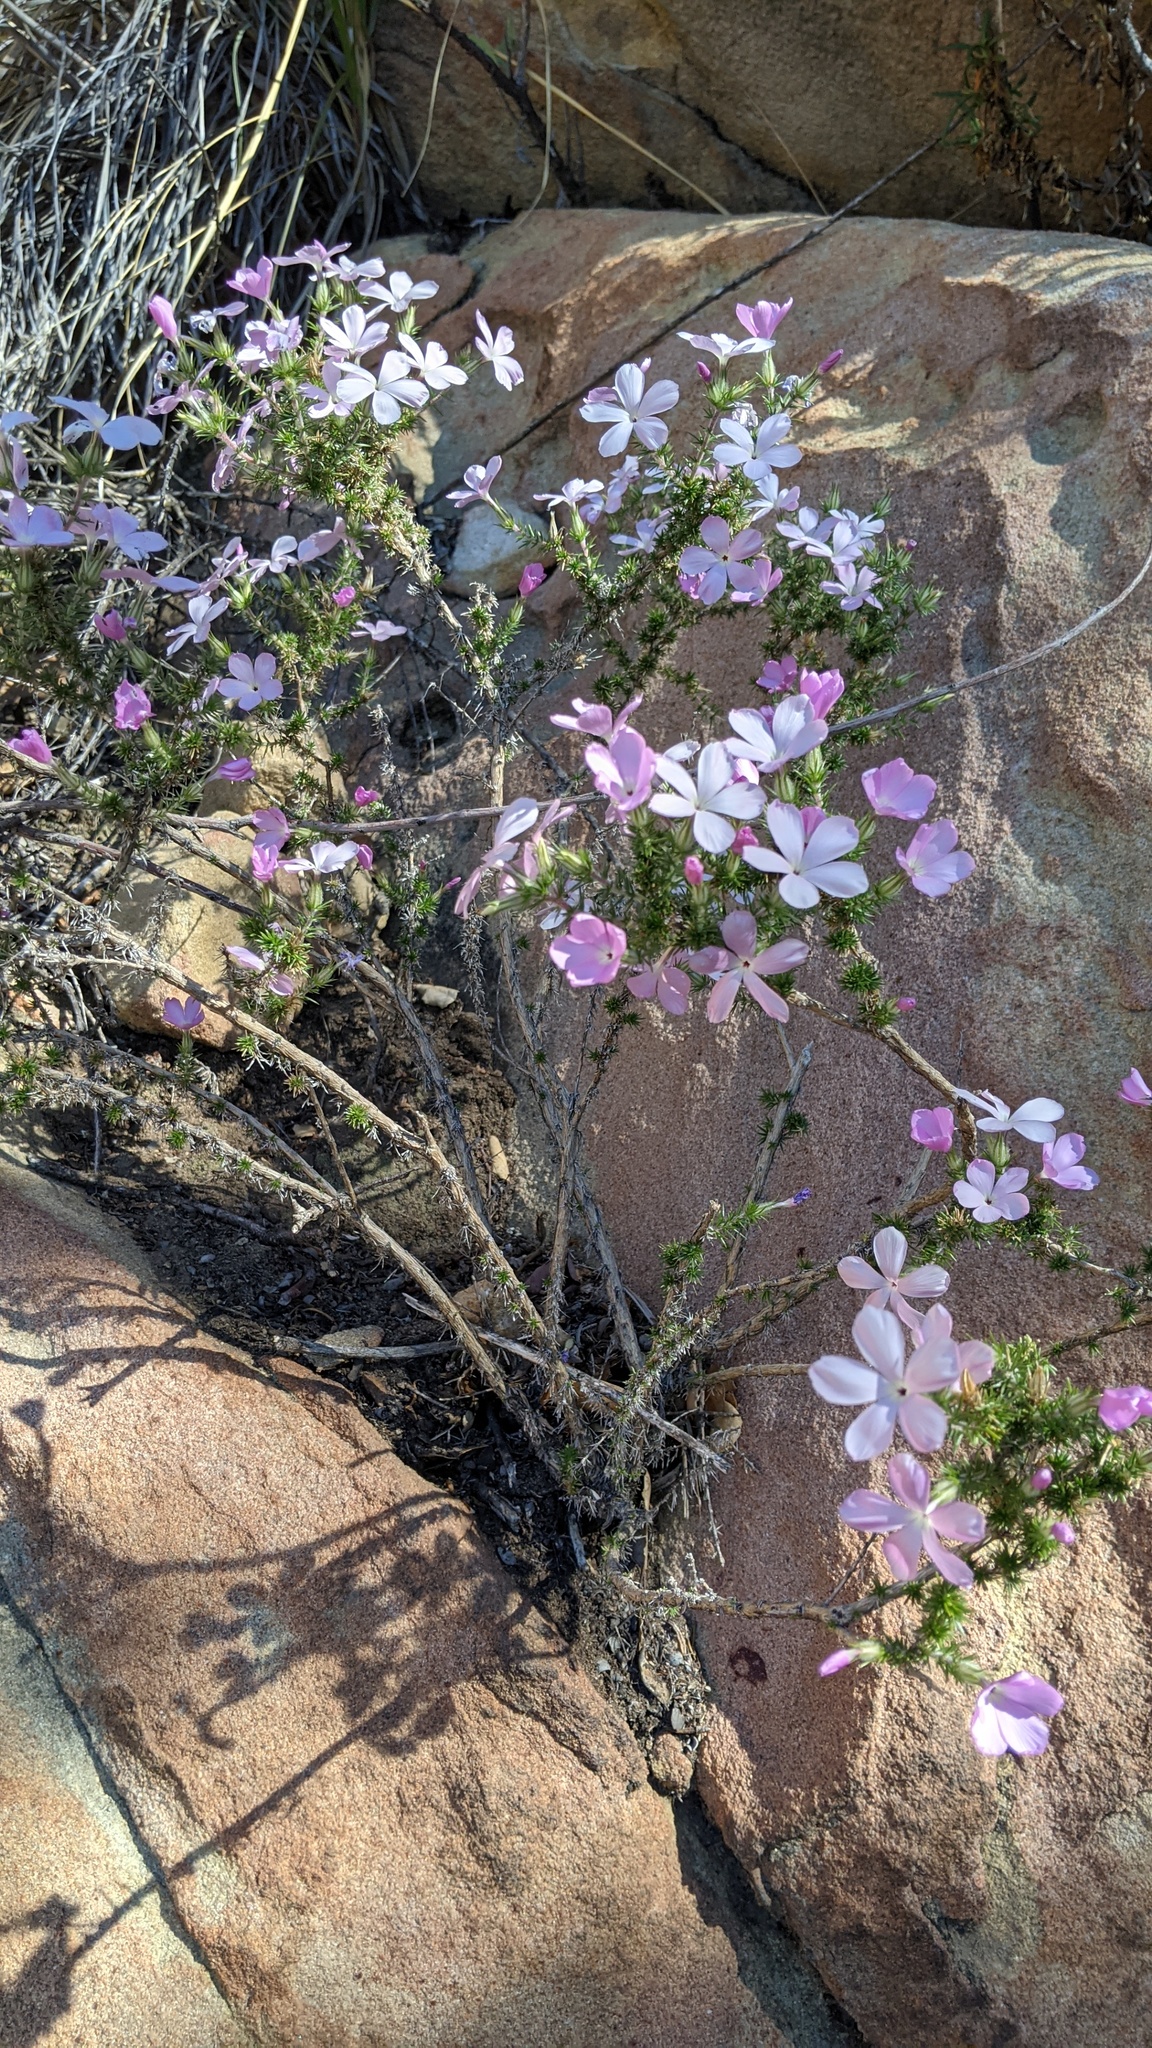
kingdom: Plantae
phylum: Tracheophyta
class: Magnoliopsida
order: Ericales
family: Polemoniaceae
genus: Linanthus
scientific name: Linanthus californicus
